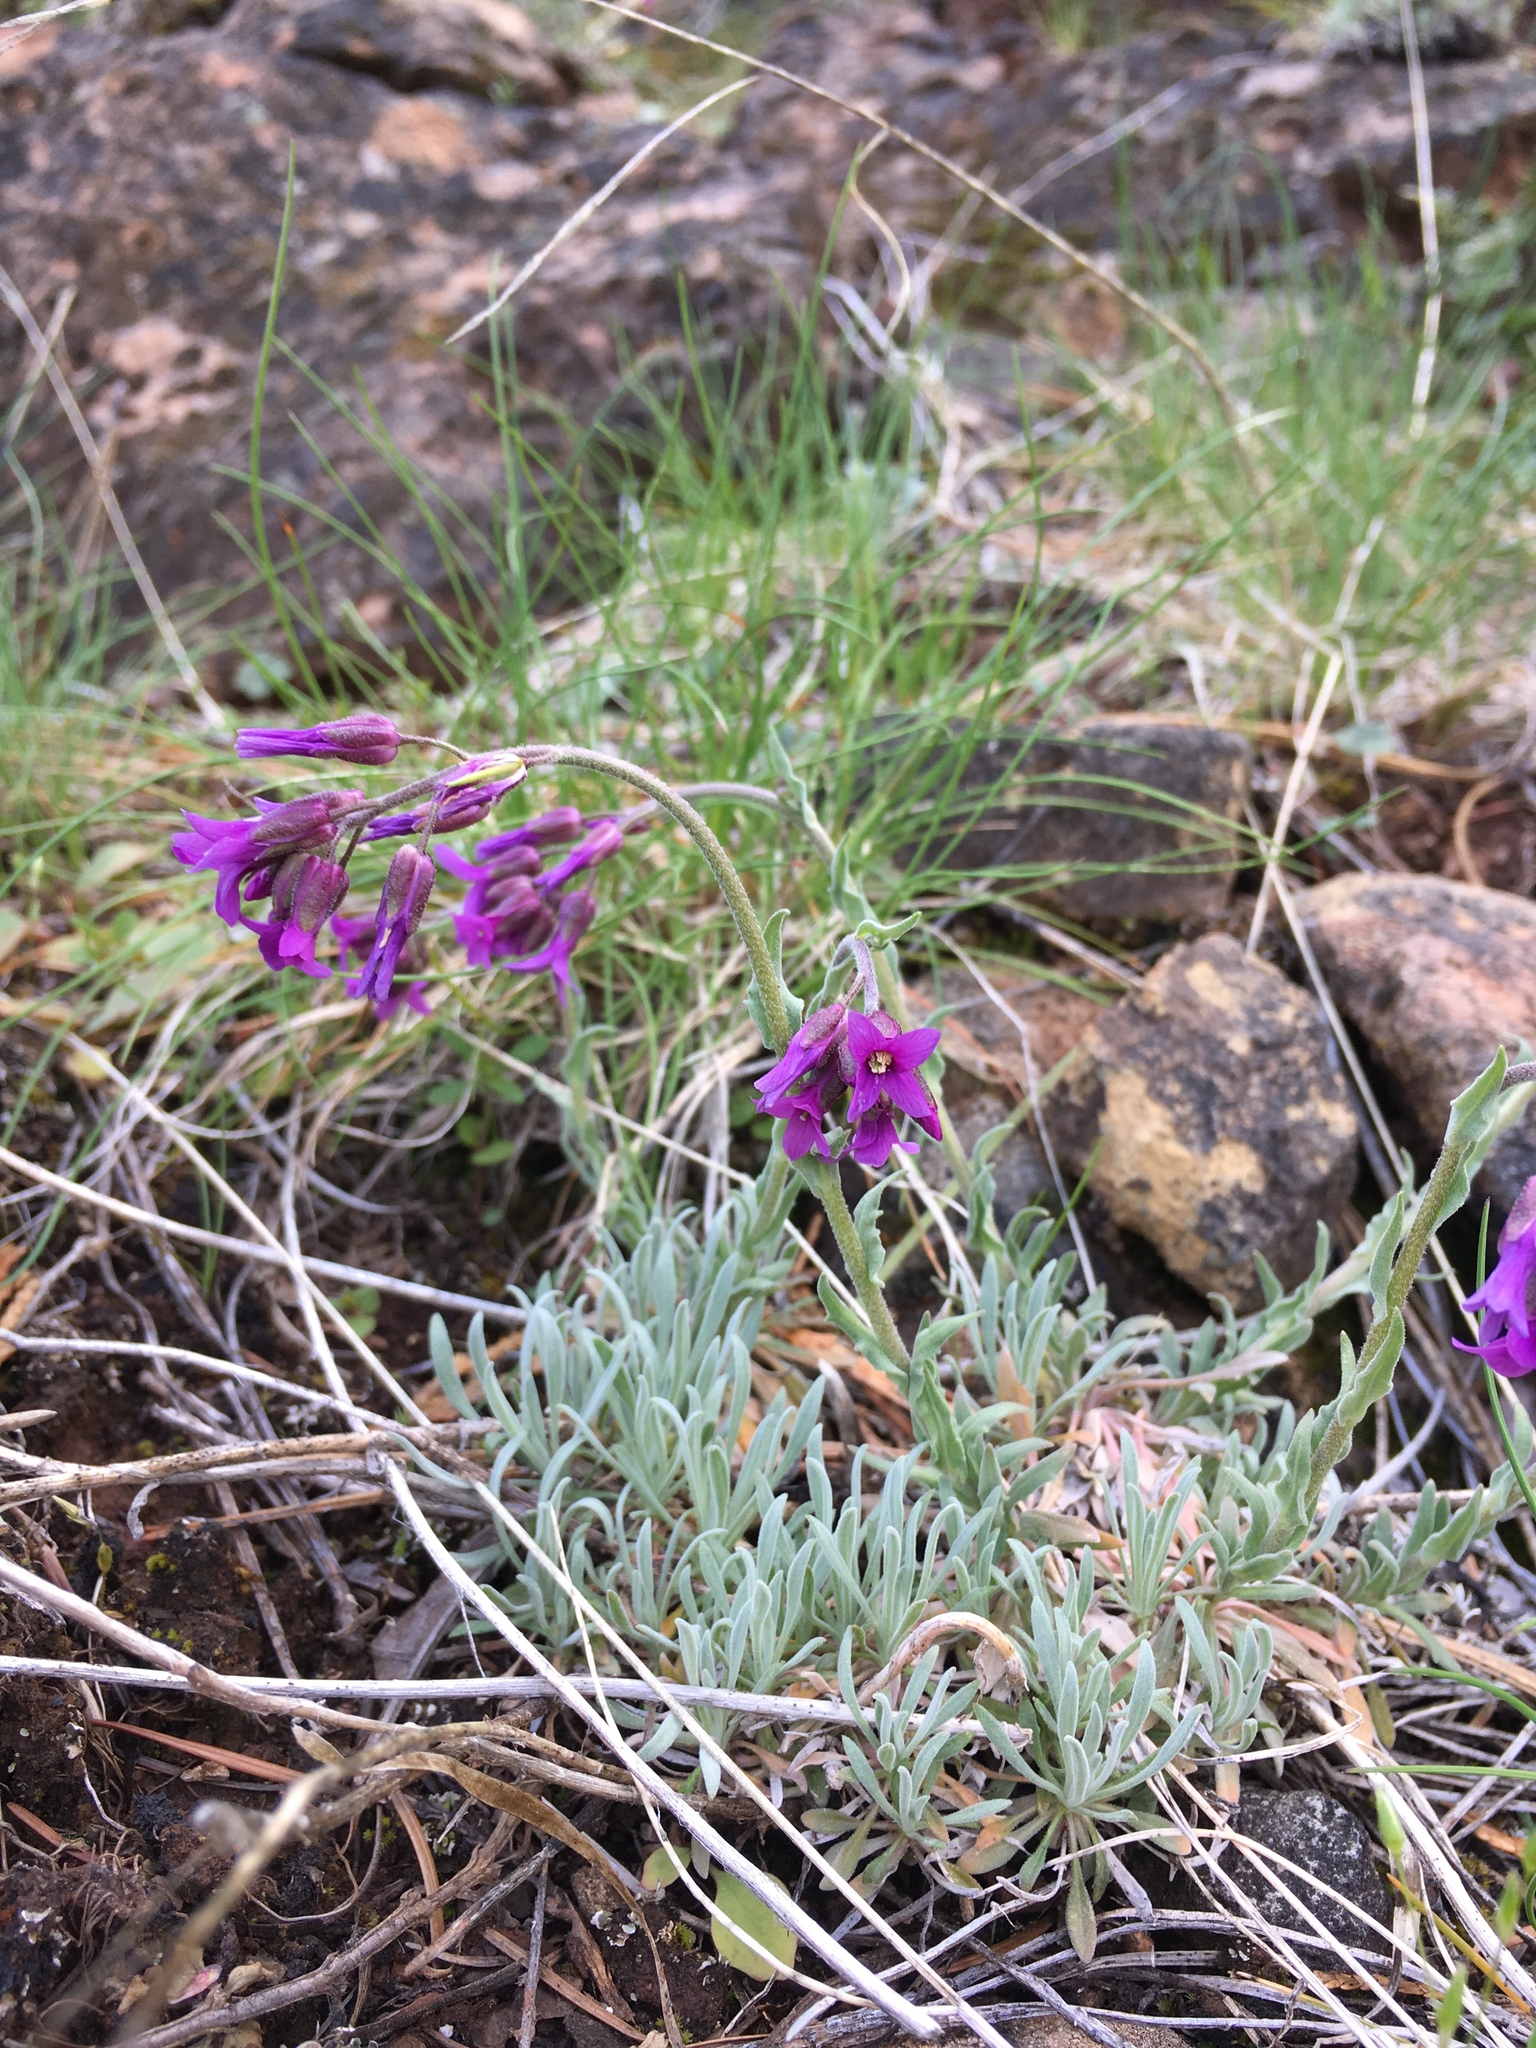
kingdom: Plantae
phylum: Tracheophyta
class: Magnoliopsida
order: Brassicales
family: Brassicaceae
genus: Boechera
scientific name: Boechera subpinnatifida
